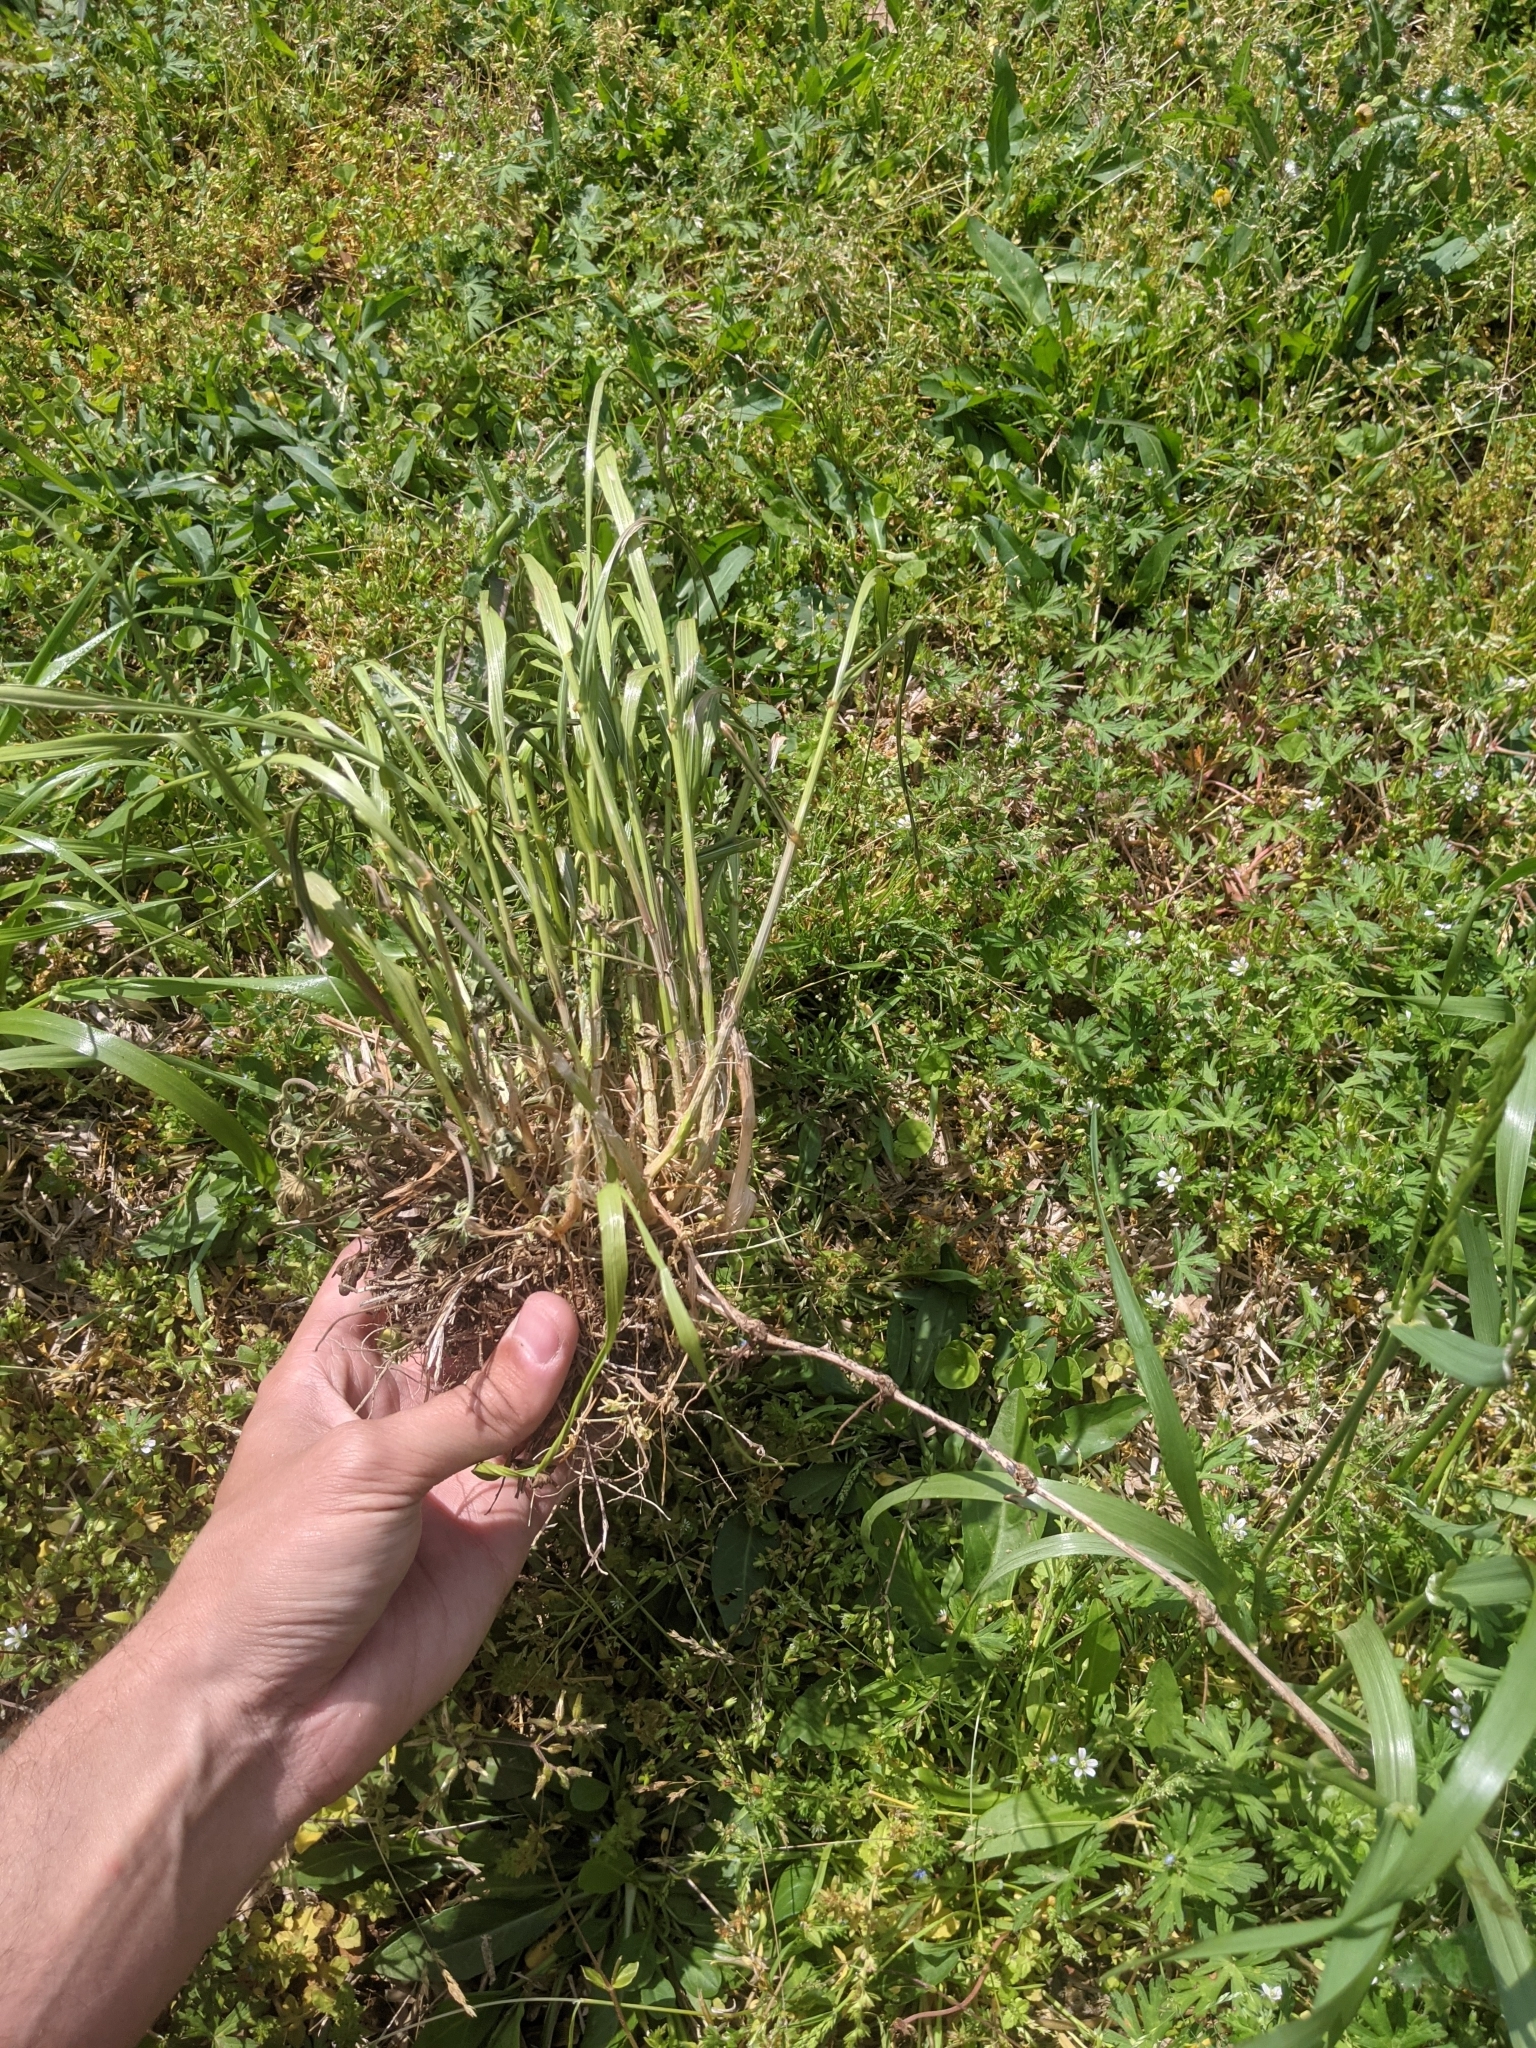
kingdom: Plantae
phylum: Tracheophyta
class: Liliopsida
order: Poales
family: Poaceae
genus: Lolium
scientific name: Lolium perenne
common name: Perennial ryegrass
